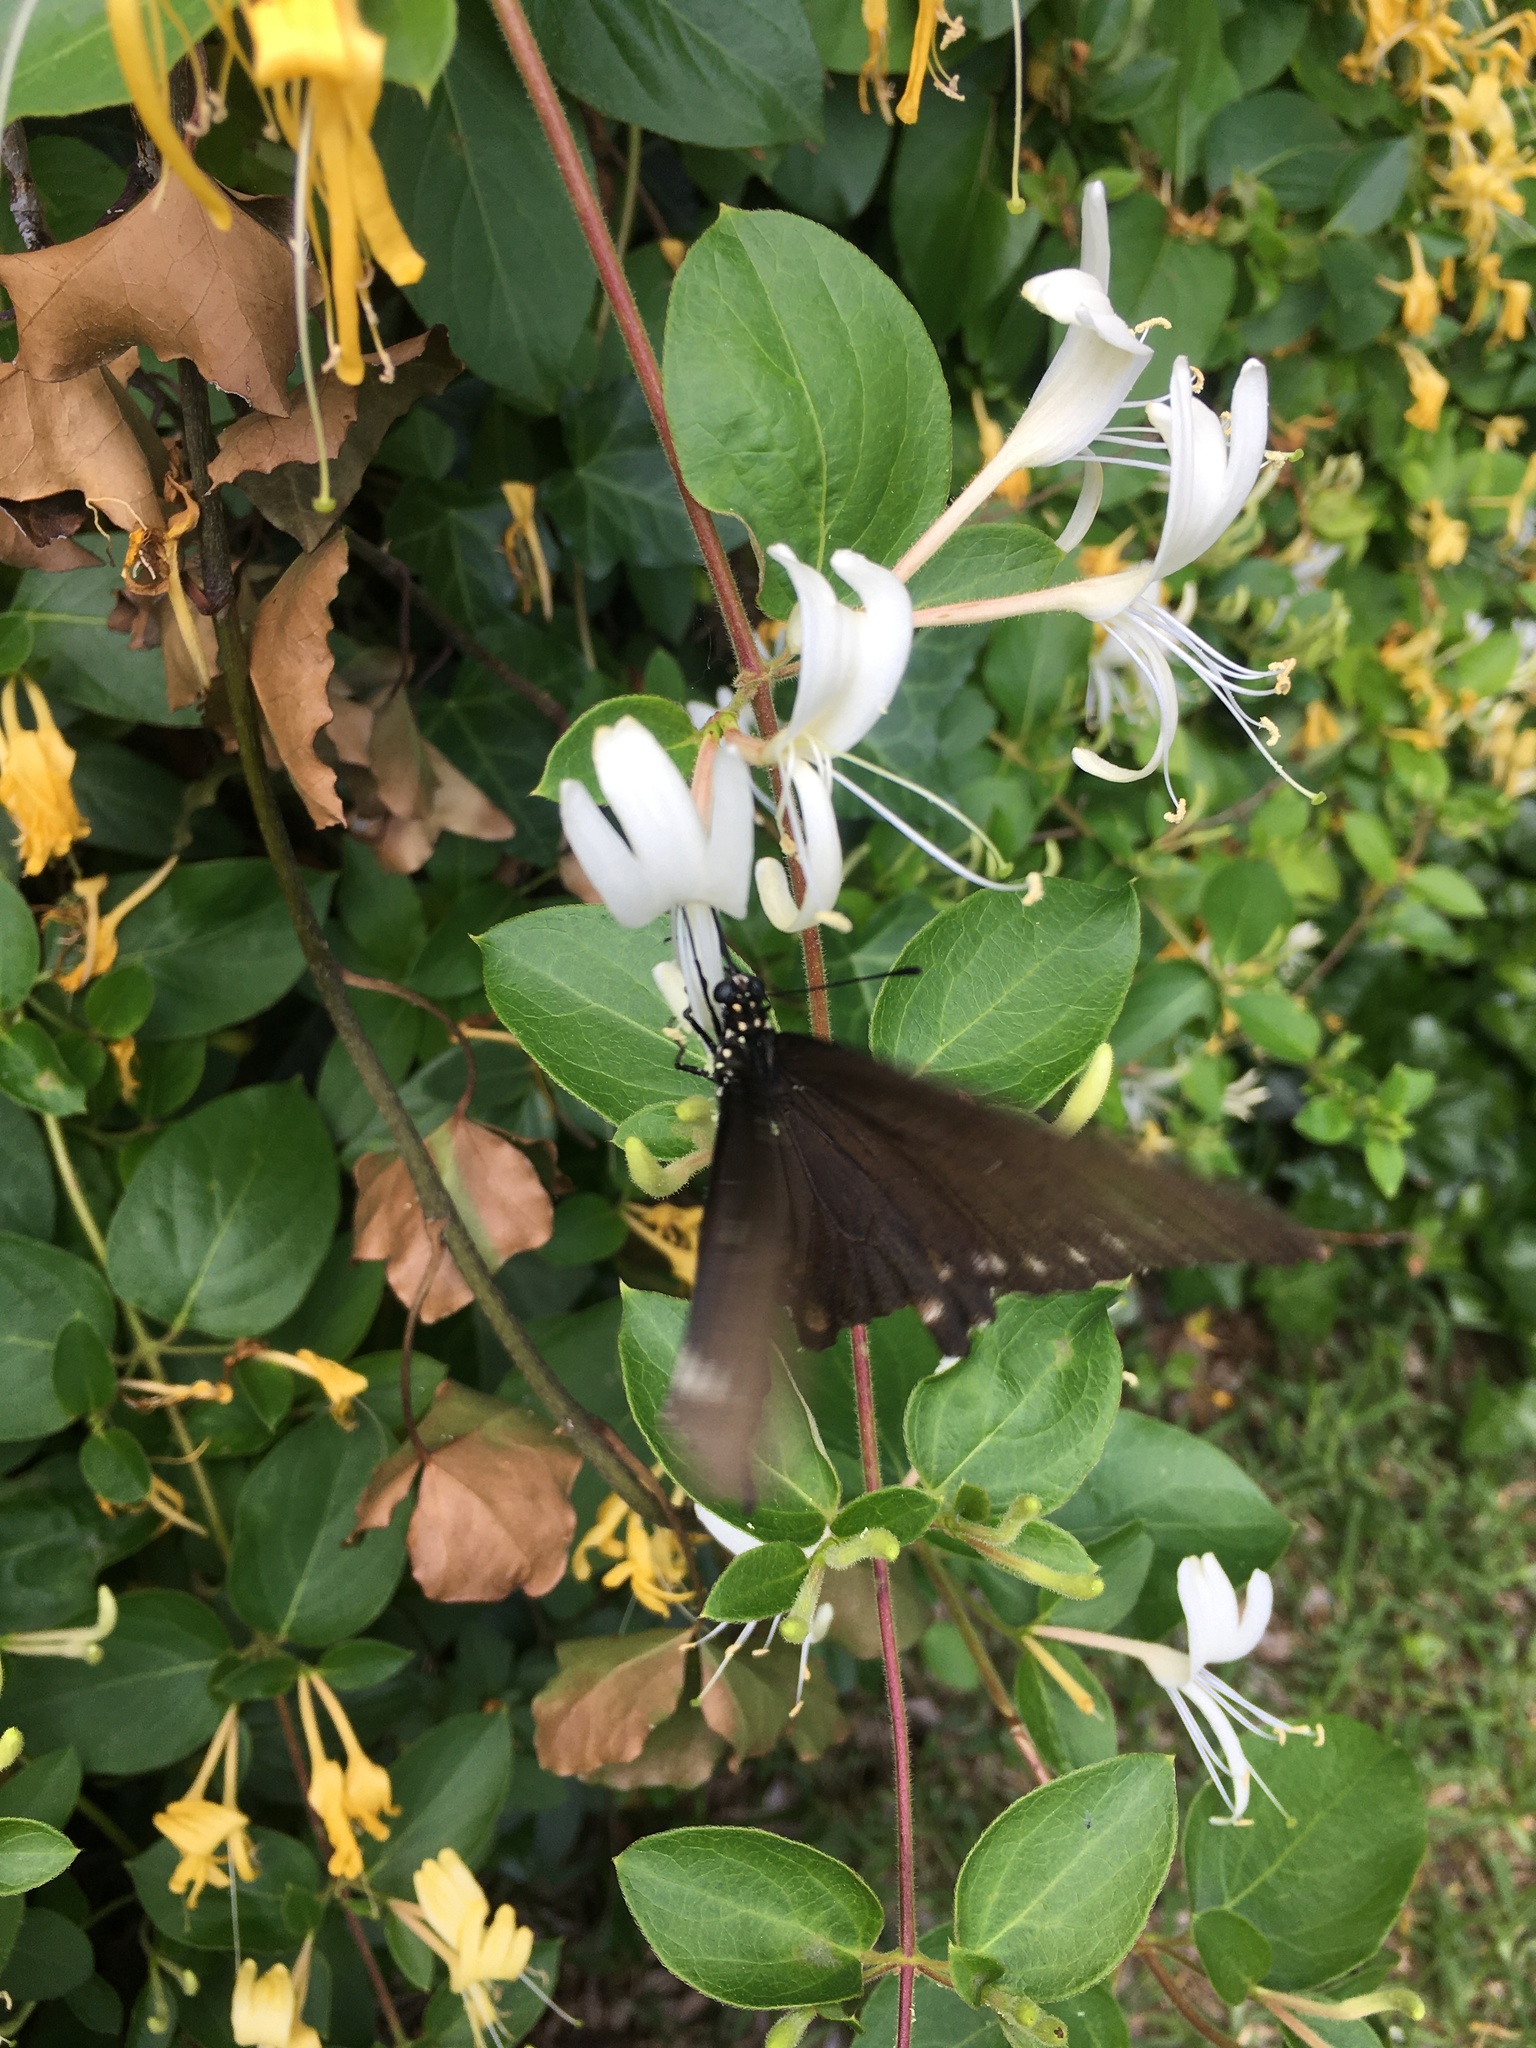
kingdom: Animalia
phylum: Arthropoda
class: Insecta
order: Lepidoptera
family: Papilionidae
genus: Battus
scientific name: Battus philenor
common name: Pipevine swallowtail
